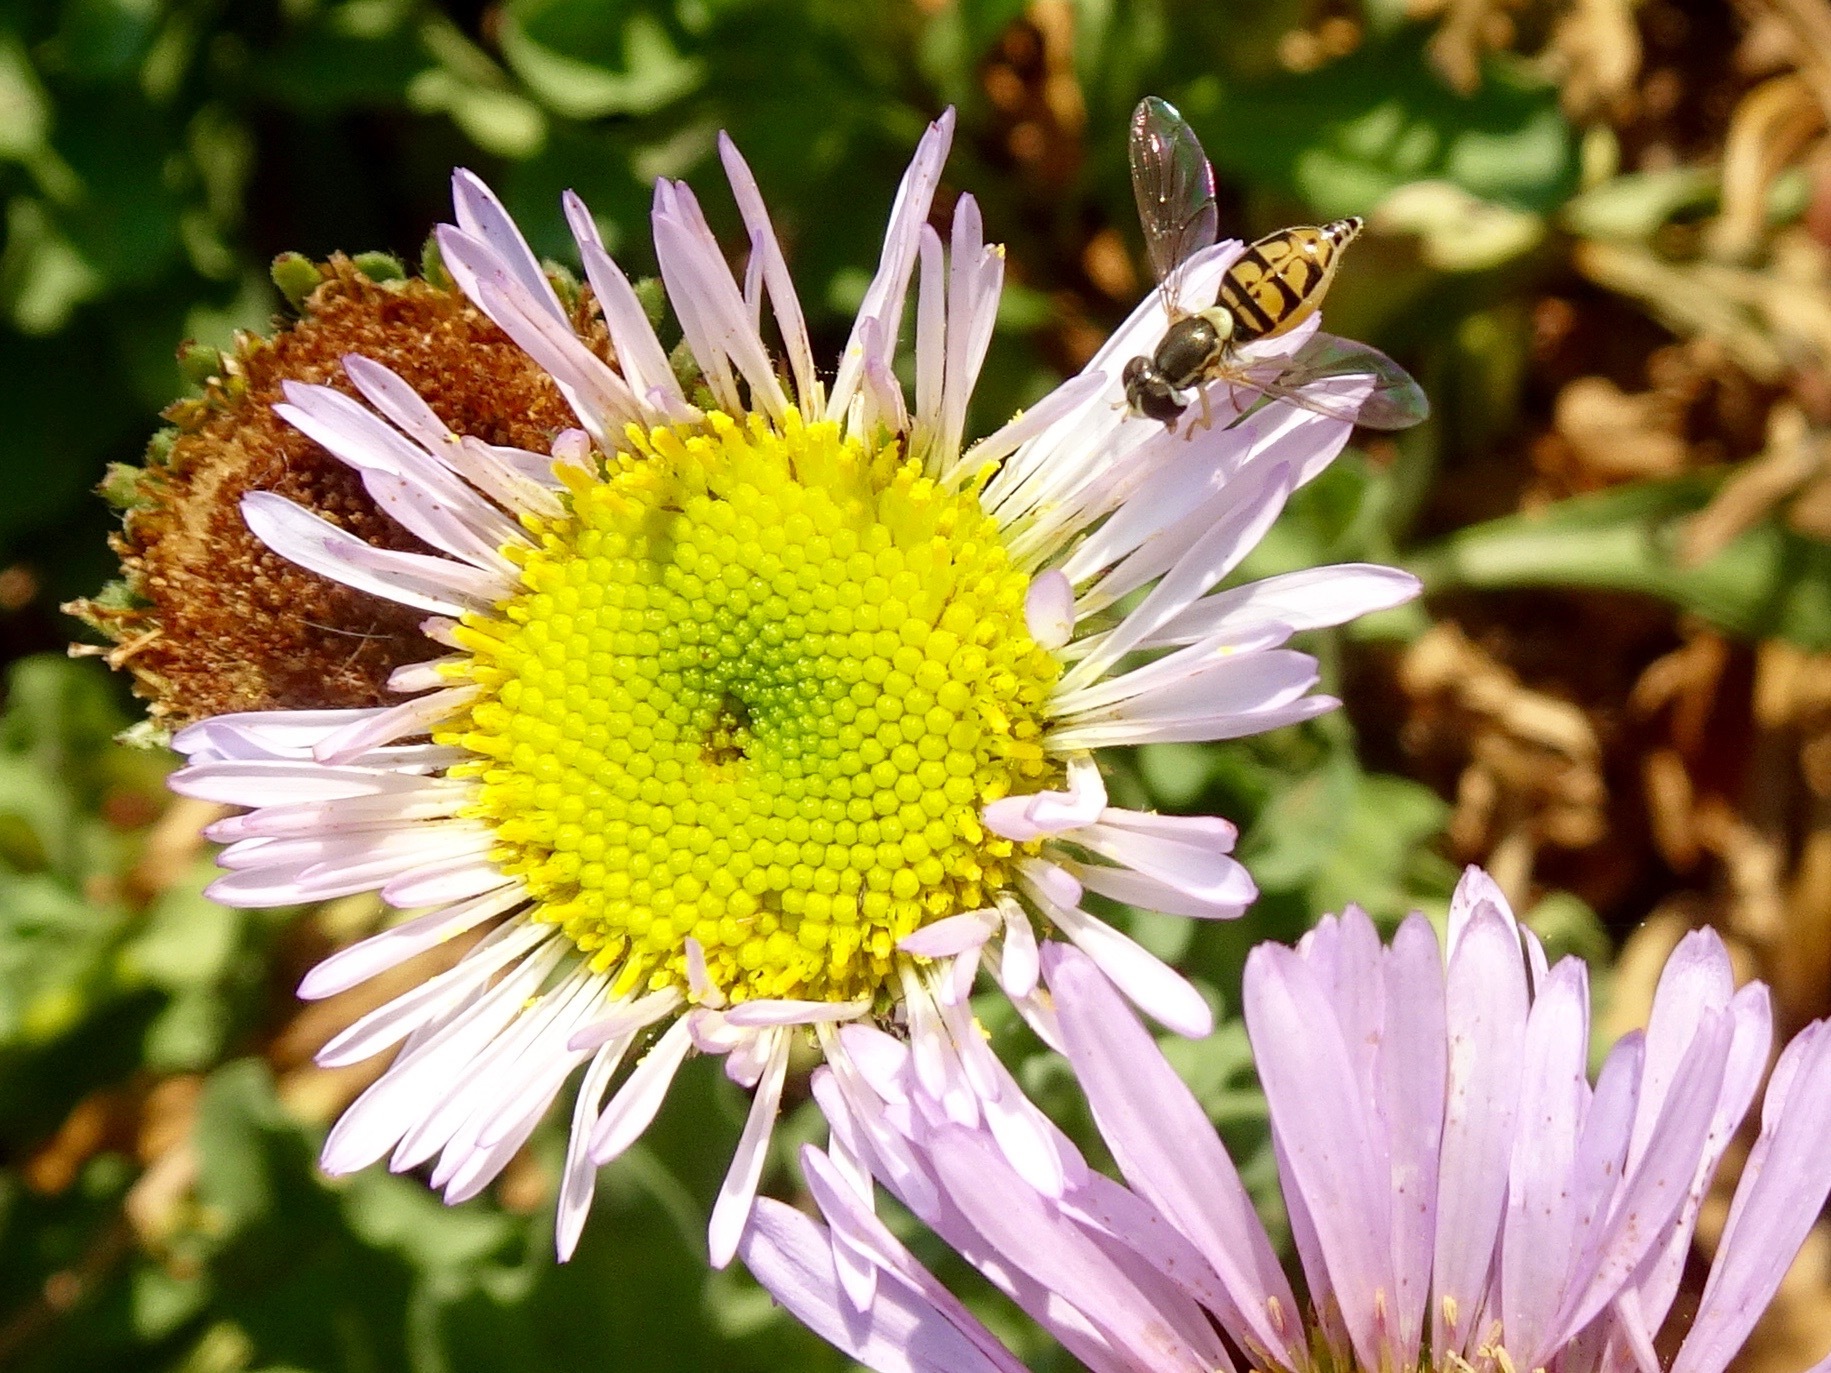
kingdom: Animalia
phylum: Arthropoda
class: Insecta
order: Diptera
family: Syrphidae
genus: Toxomerus
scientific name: Toxomerus marginatus
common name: Syrphid fly
